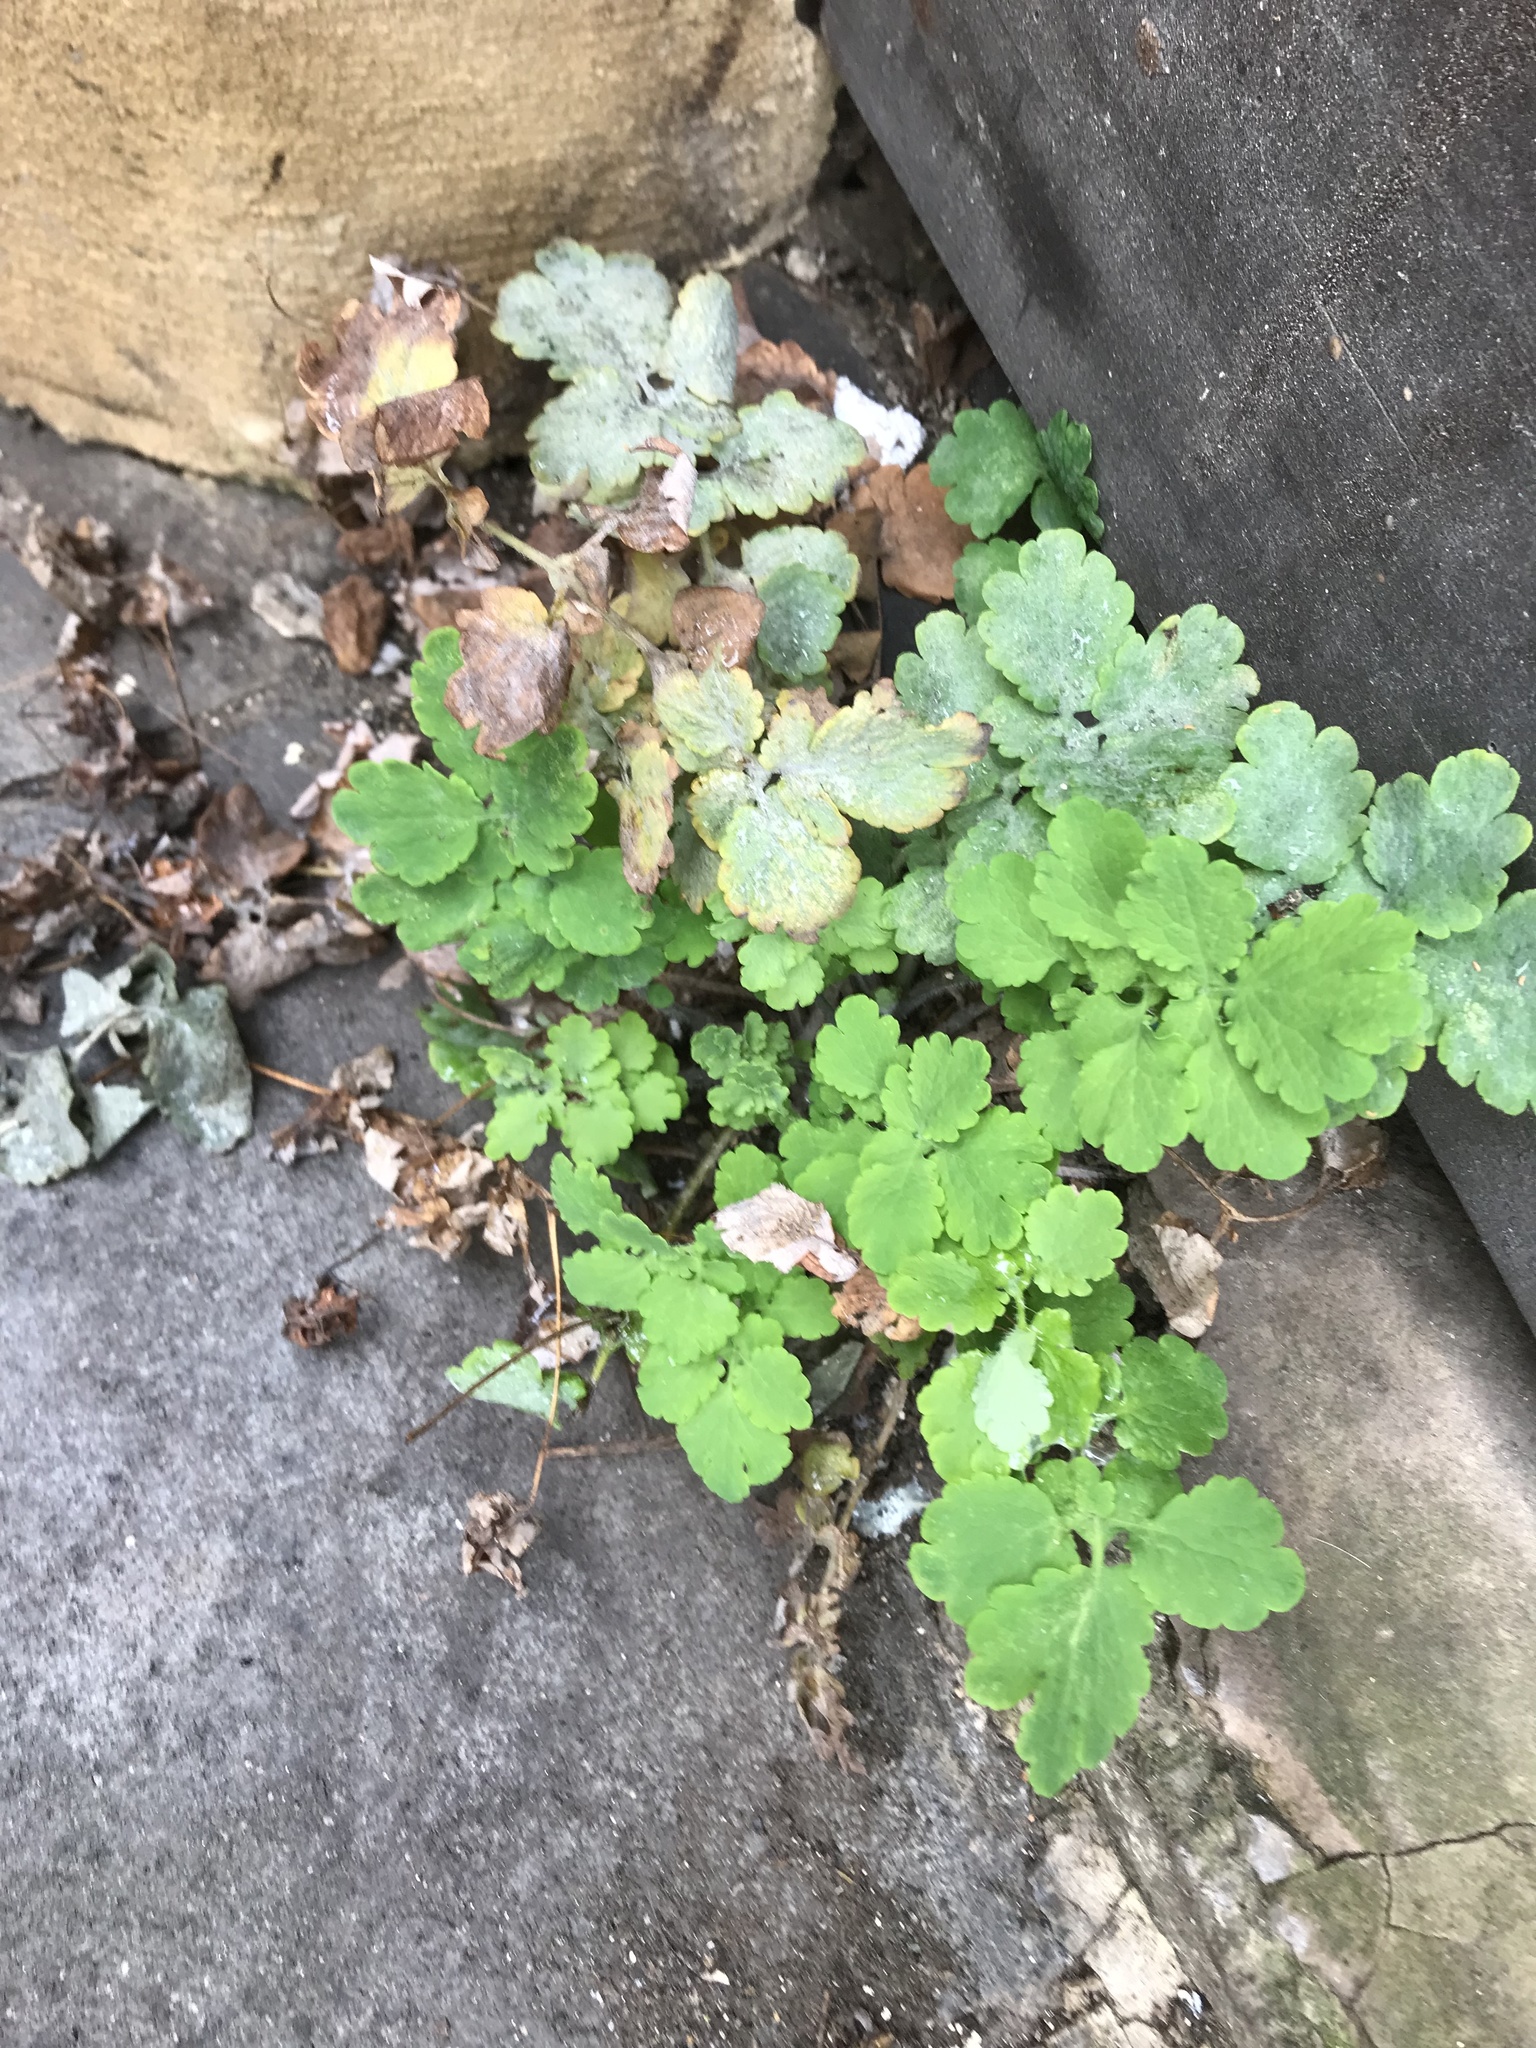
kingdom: Plantae
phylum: Tracheophyta
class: Magnoliopsida
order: Ranunculales
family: Papaveraceae
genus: Chelidonium
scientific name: Chelidonium majus
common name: Greater celandine
